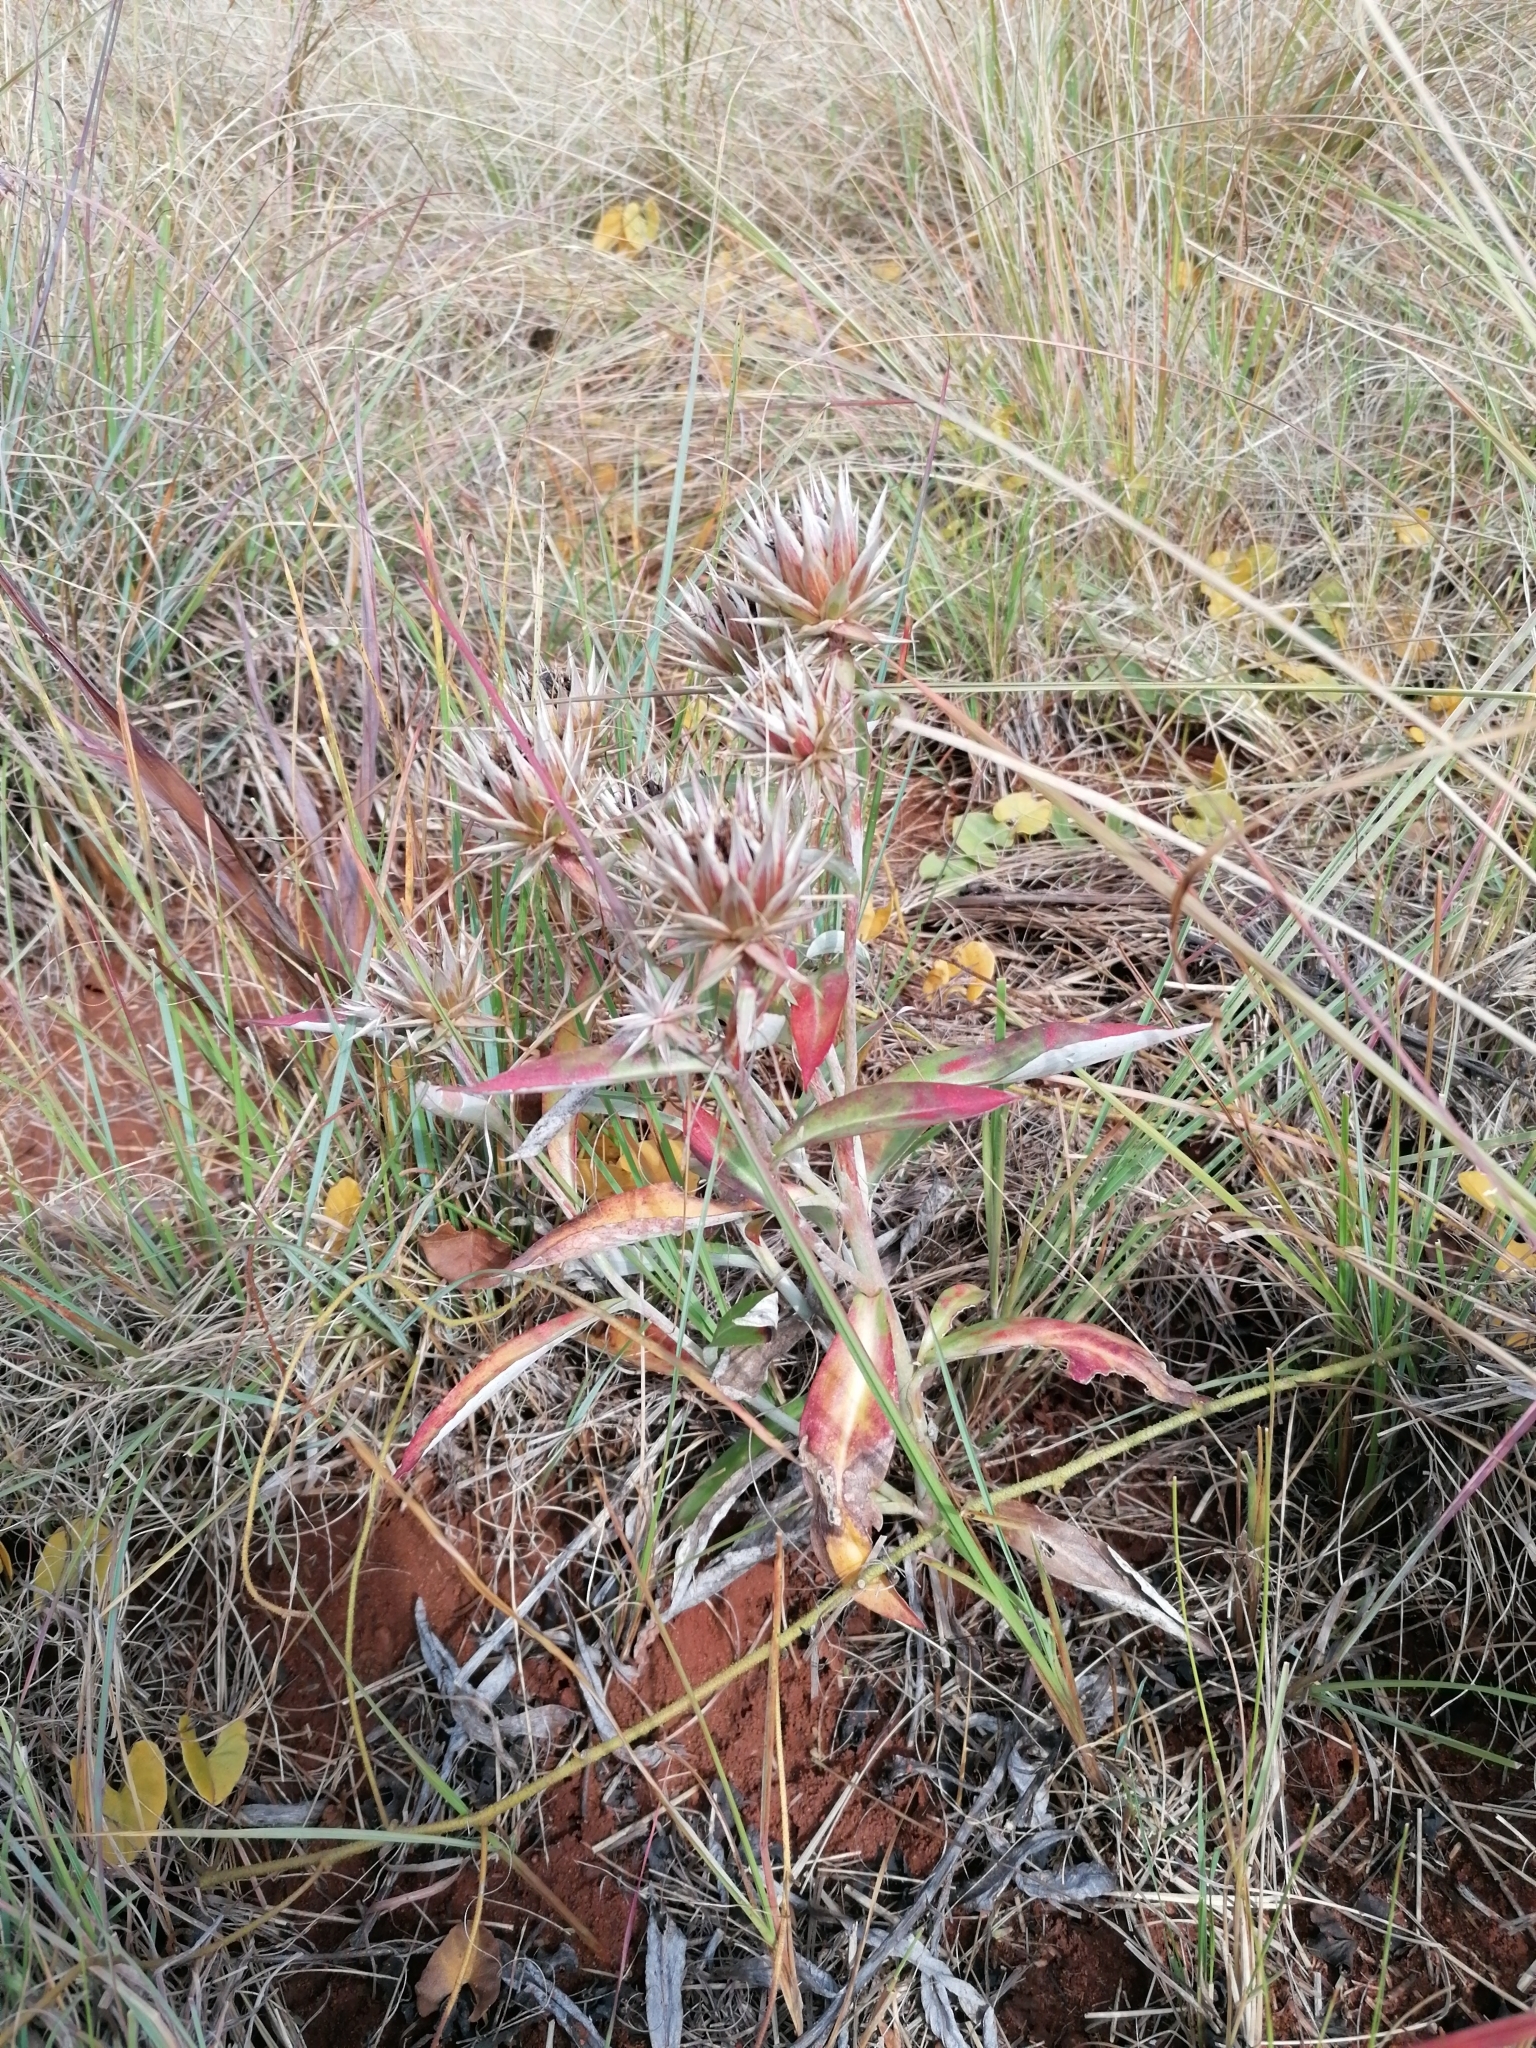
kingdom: Plantae
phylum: Tracheophyta
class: Magnoliopsida
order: Asterales
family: Asteraceae
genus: Macledium
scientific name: Macledium zeyheri
